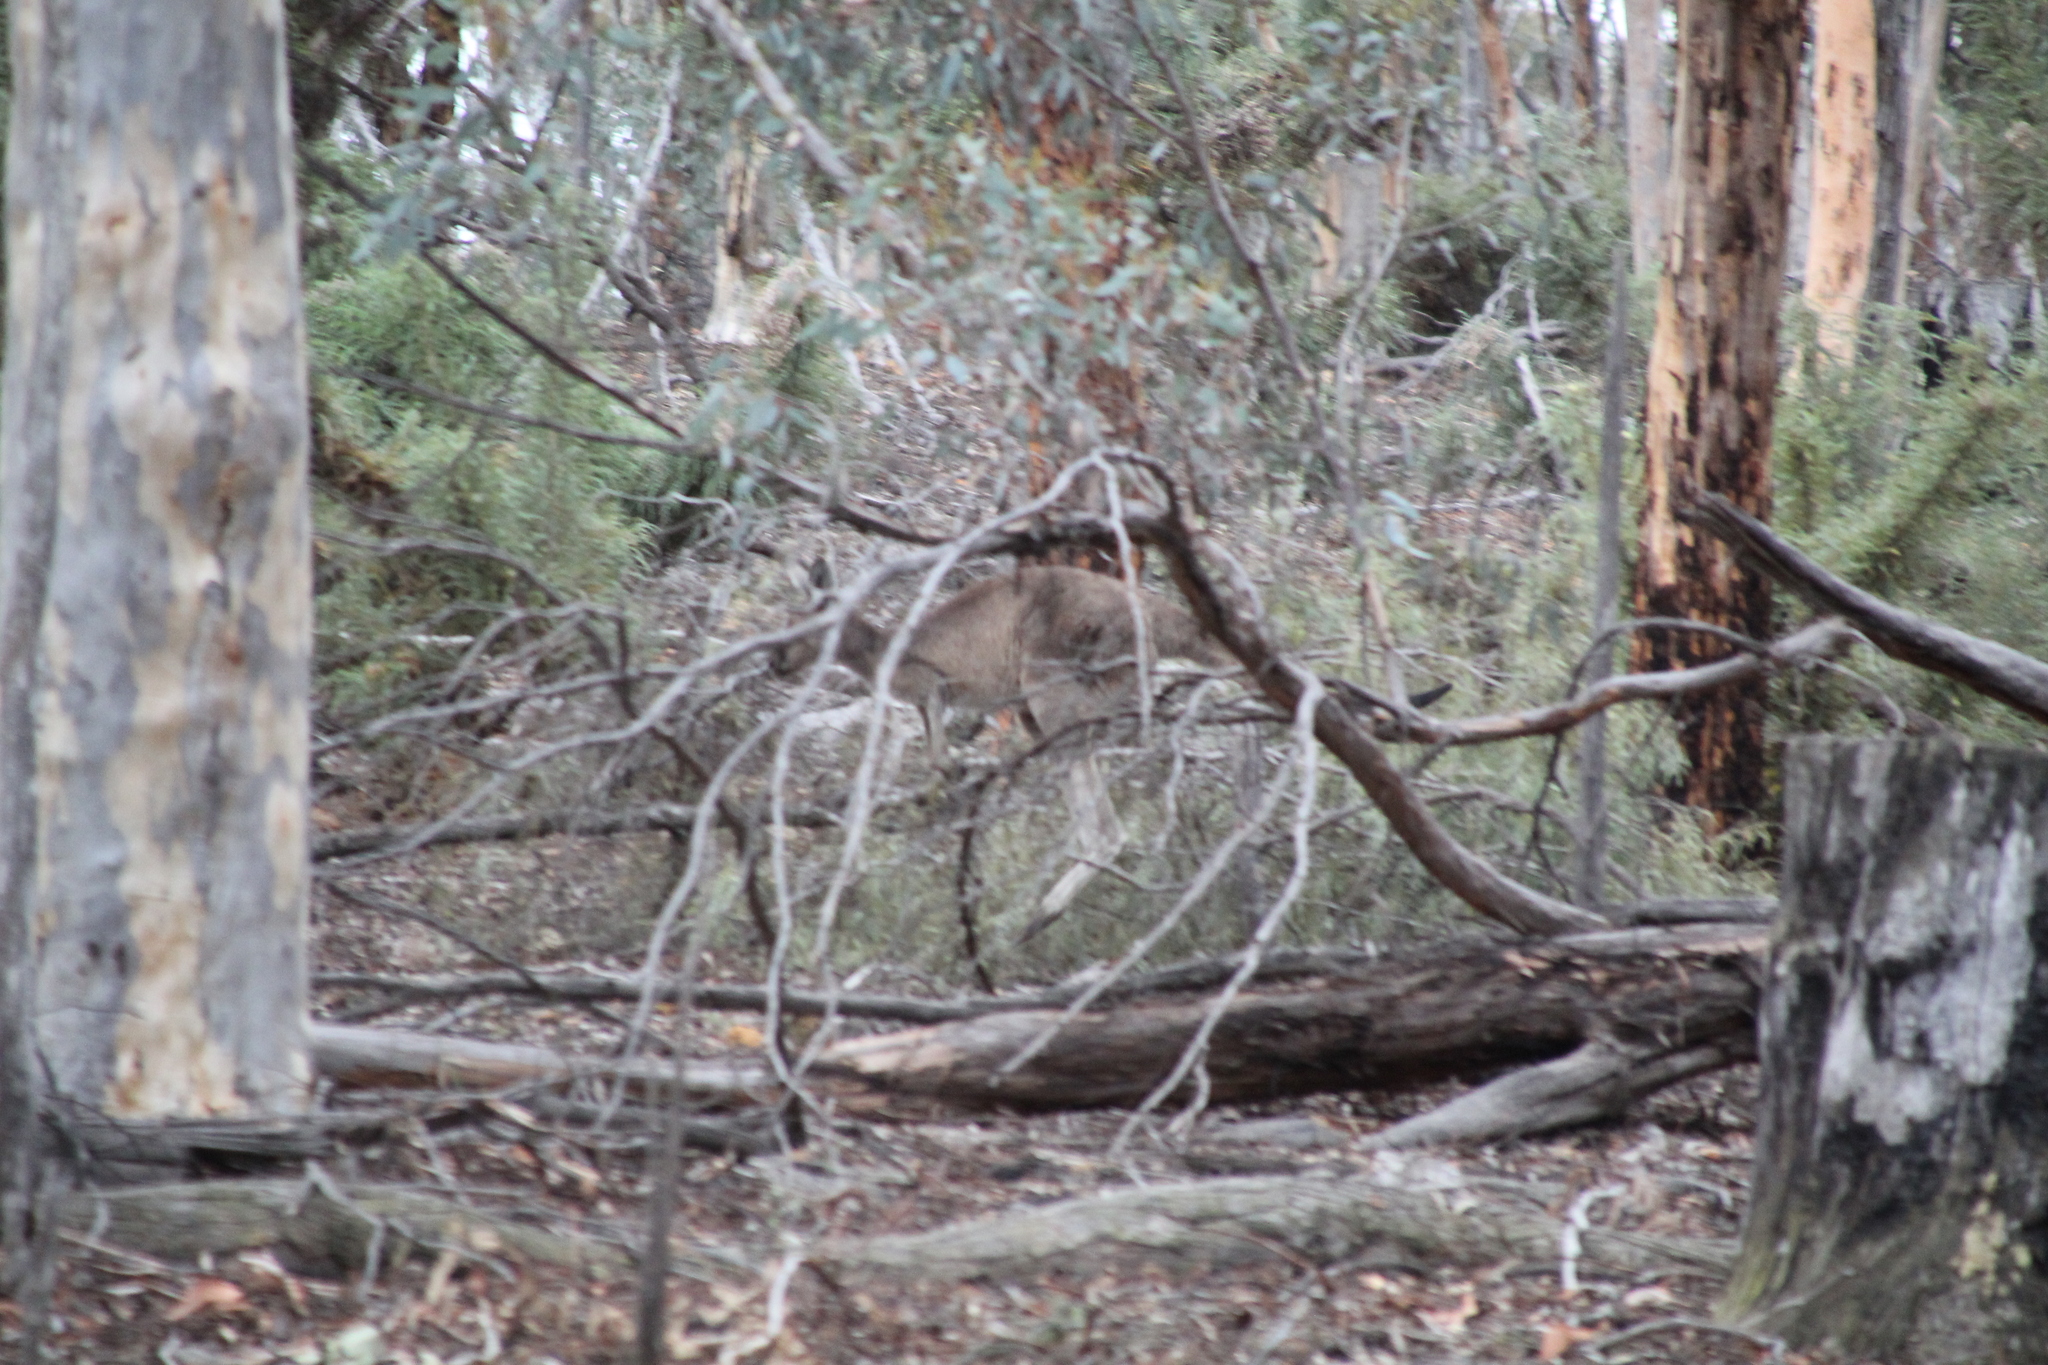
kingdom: Animalia
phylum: Chordata
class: Mammalia
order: Diprotodontia
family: Macropodidae
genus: Macropus
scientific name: Macropus fuliginosus
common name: Western grey kangaroo
